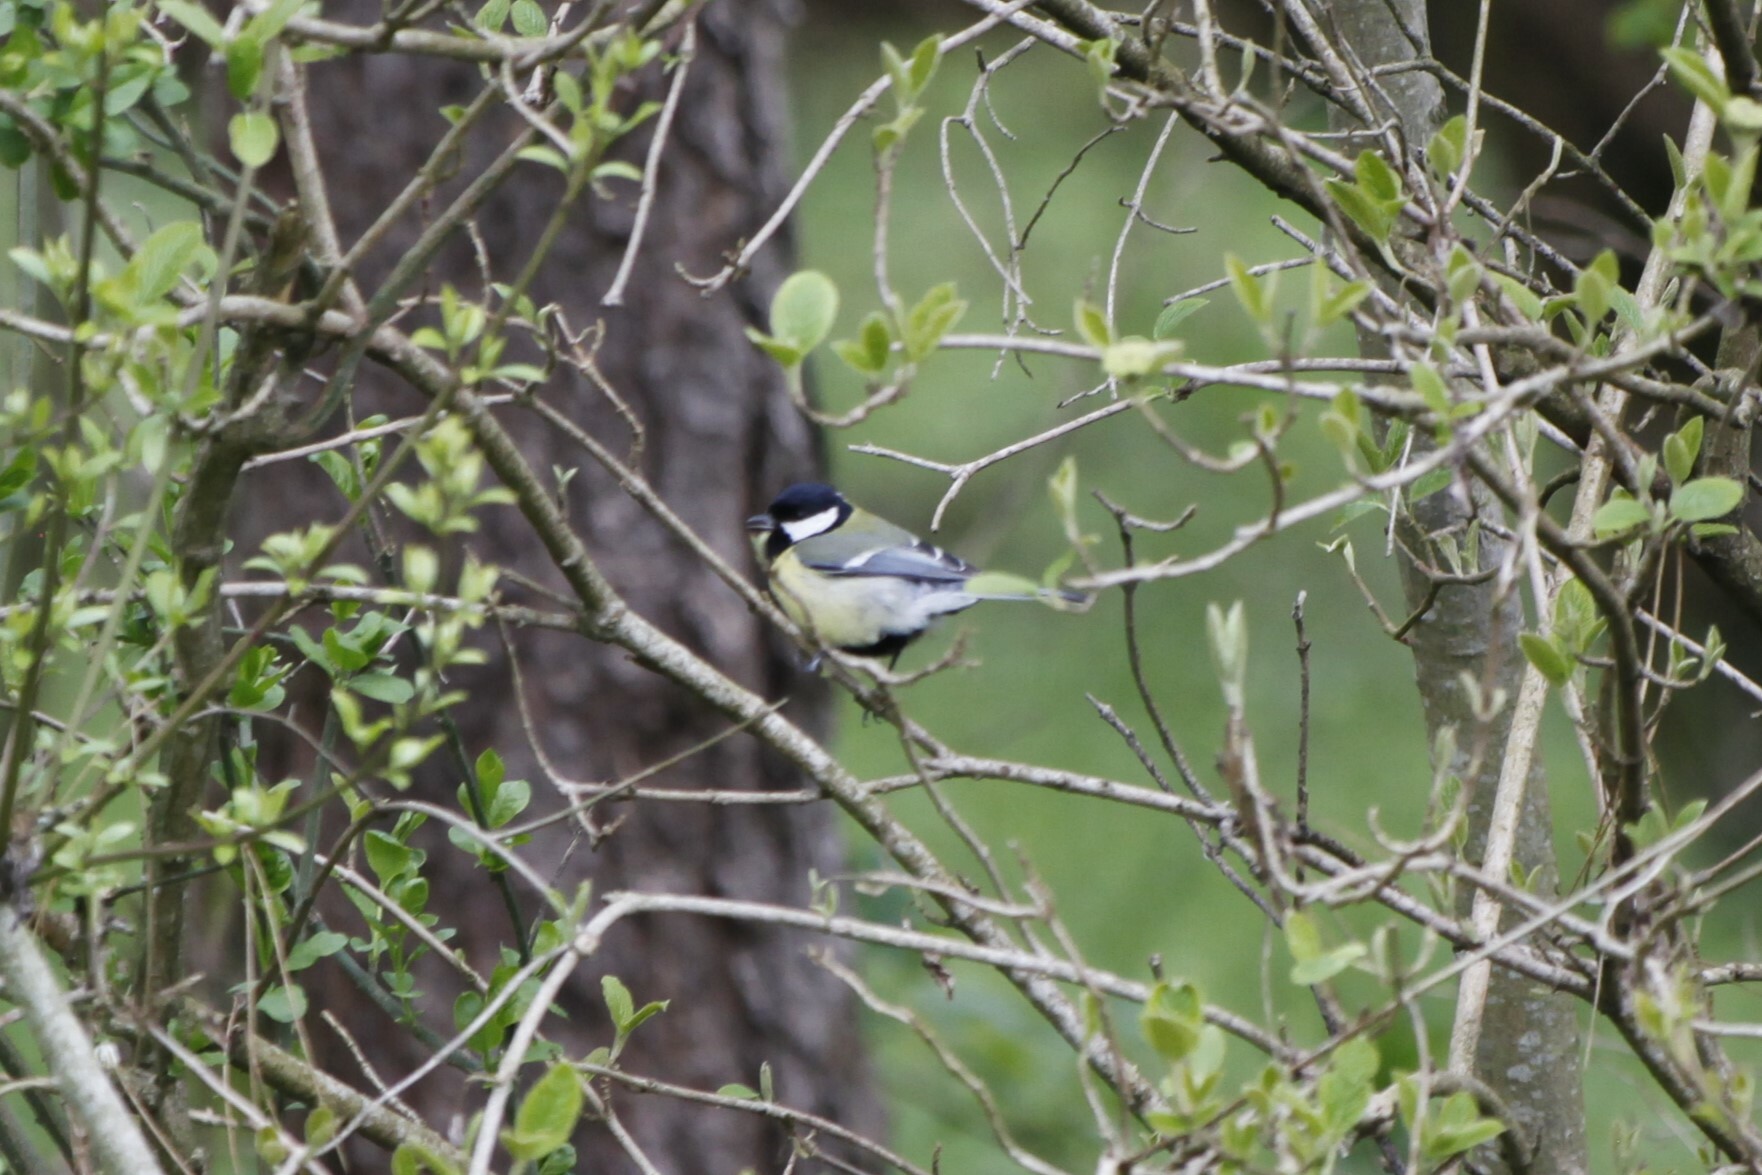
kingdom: Animalia
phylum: Chordata
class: Aves
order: Passeriformes
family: Paridae
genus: Parus
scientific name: Parus major
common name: Great tit
